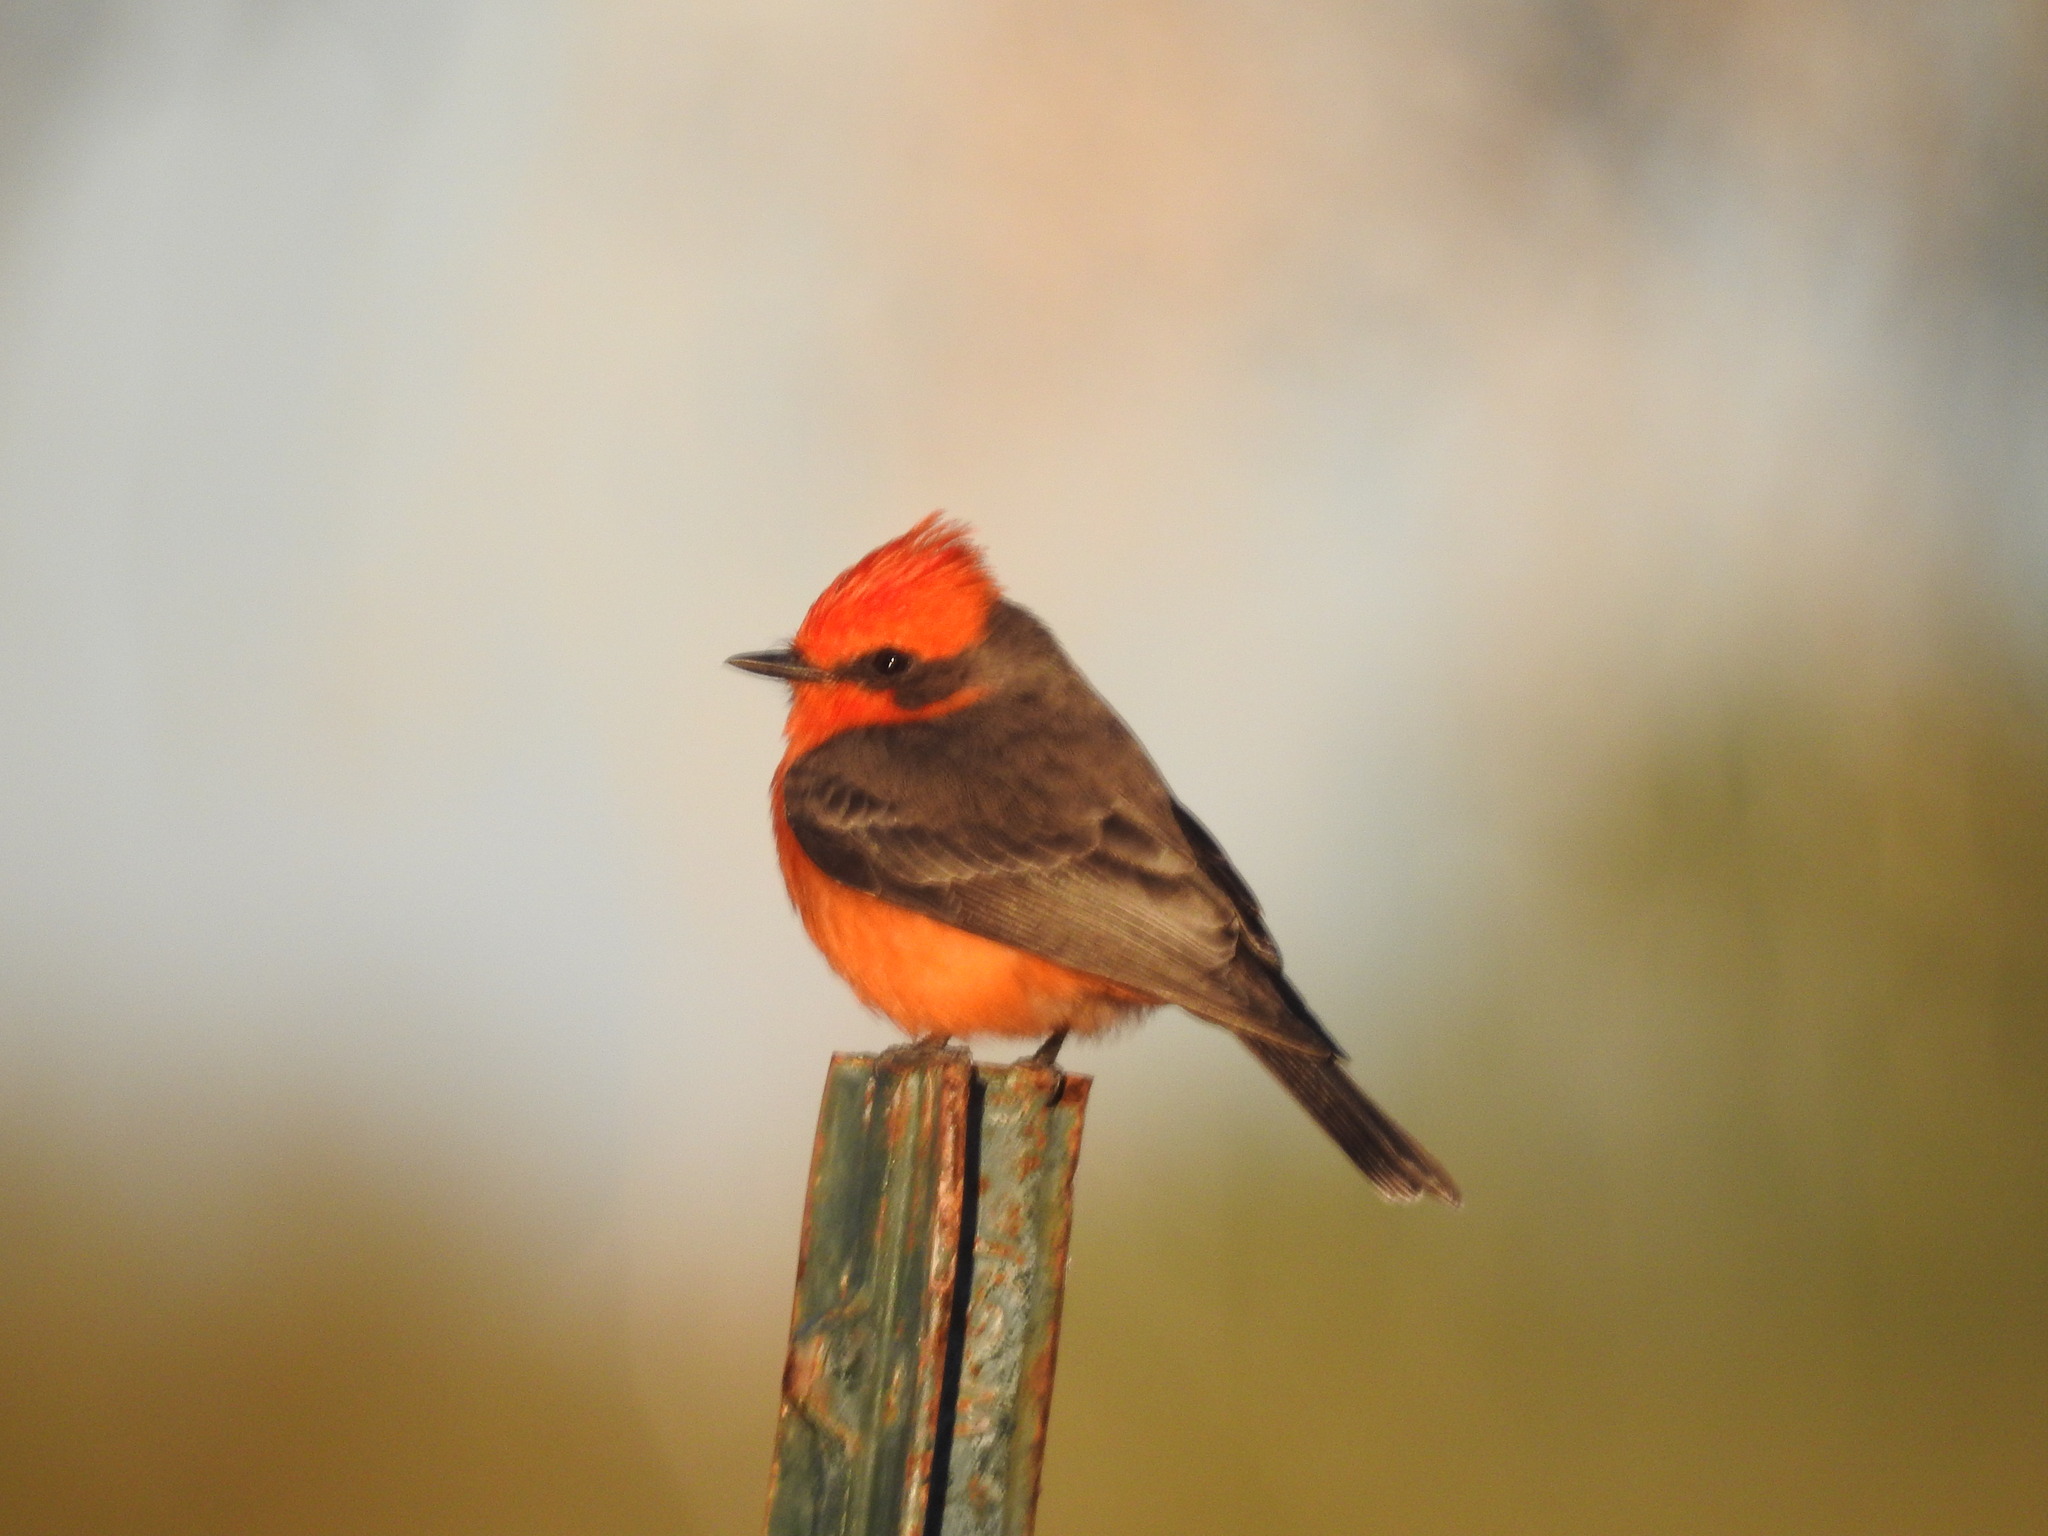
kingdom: Animalia
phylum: Chordata
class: Aves
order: Passeriformes
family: Tyrannidae
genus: Pyrocephalus
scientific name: Pyrocephalus rubinus
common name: Vermilion flycatcher
